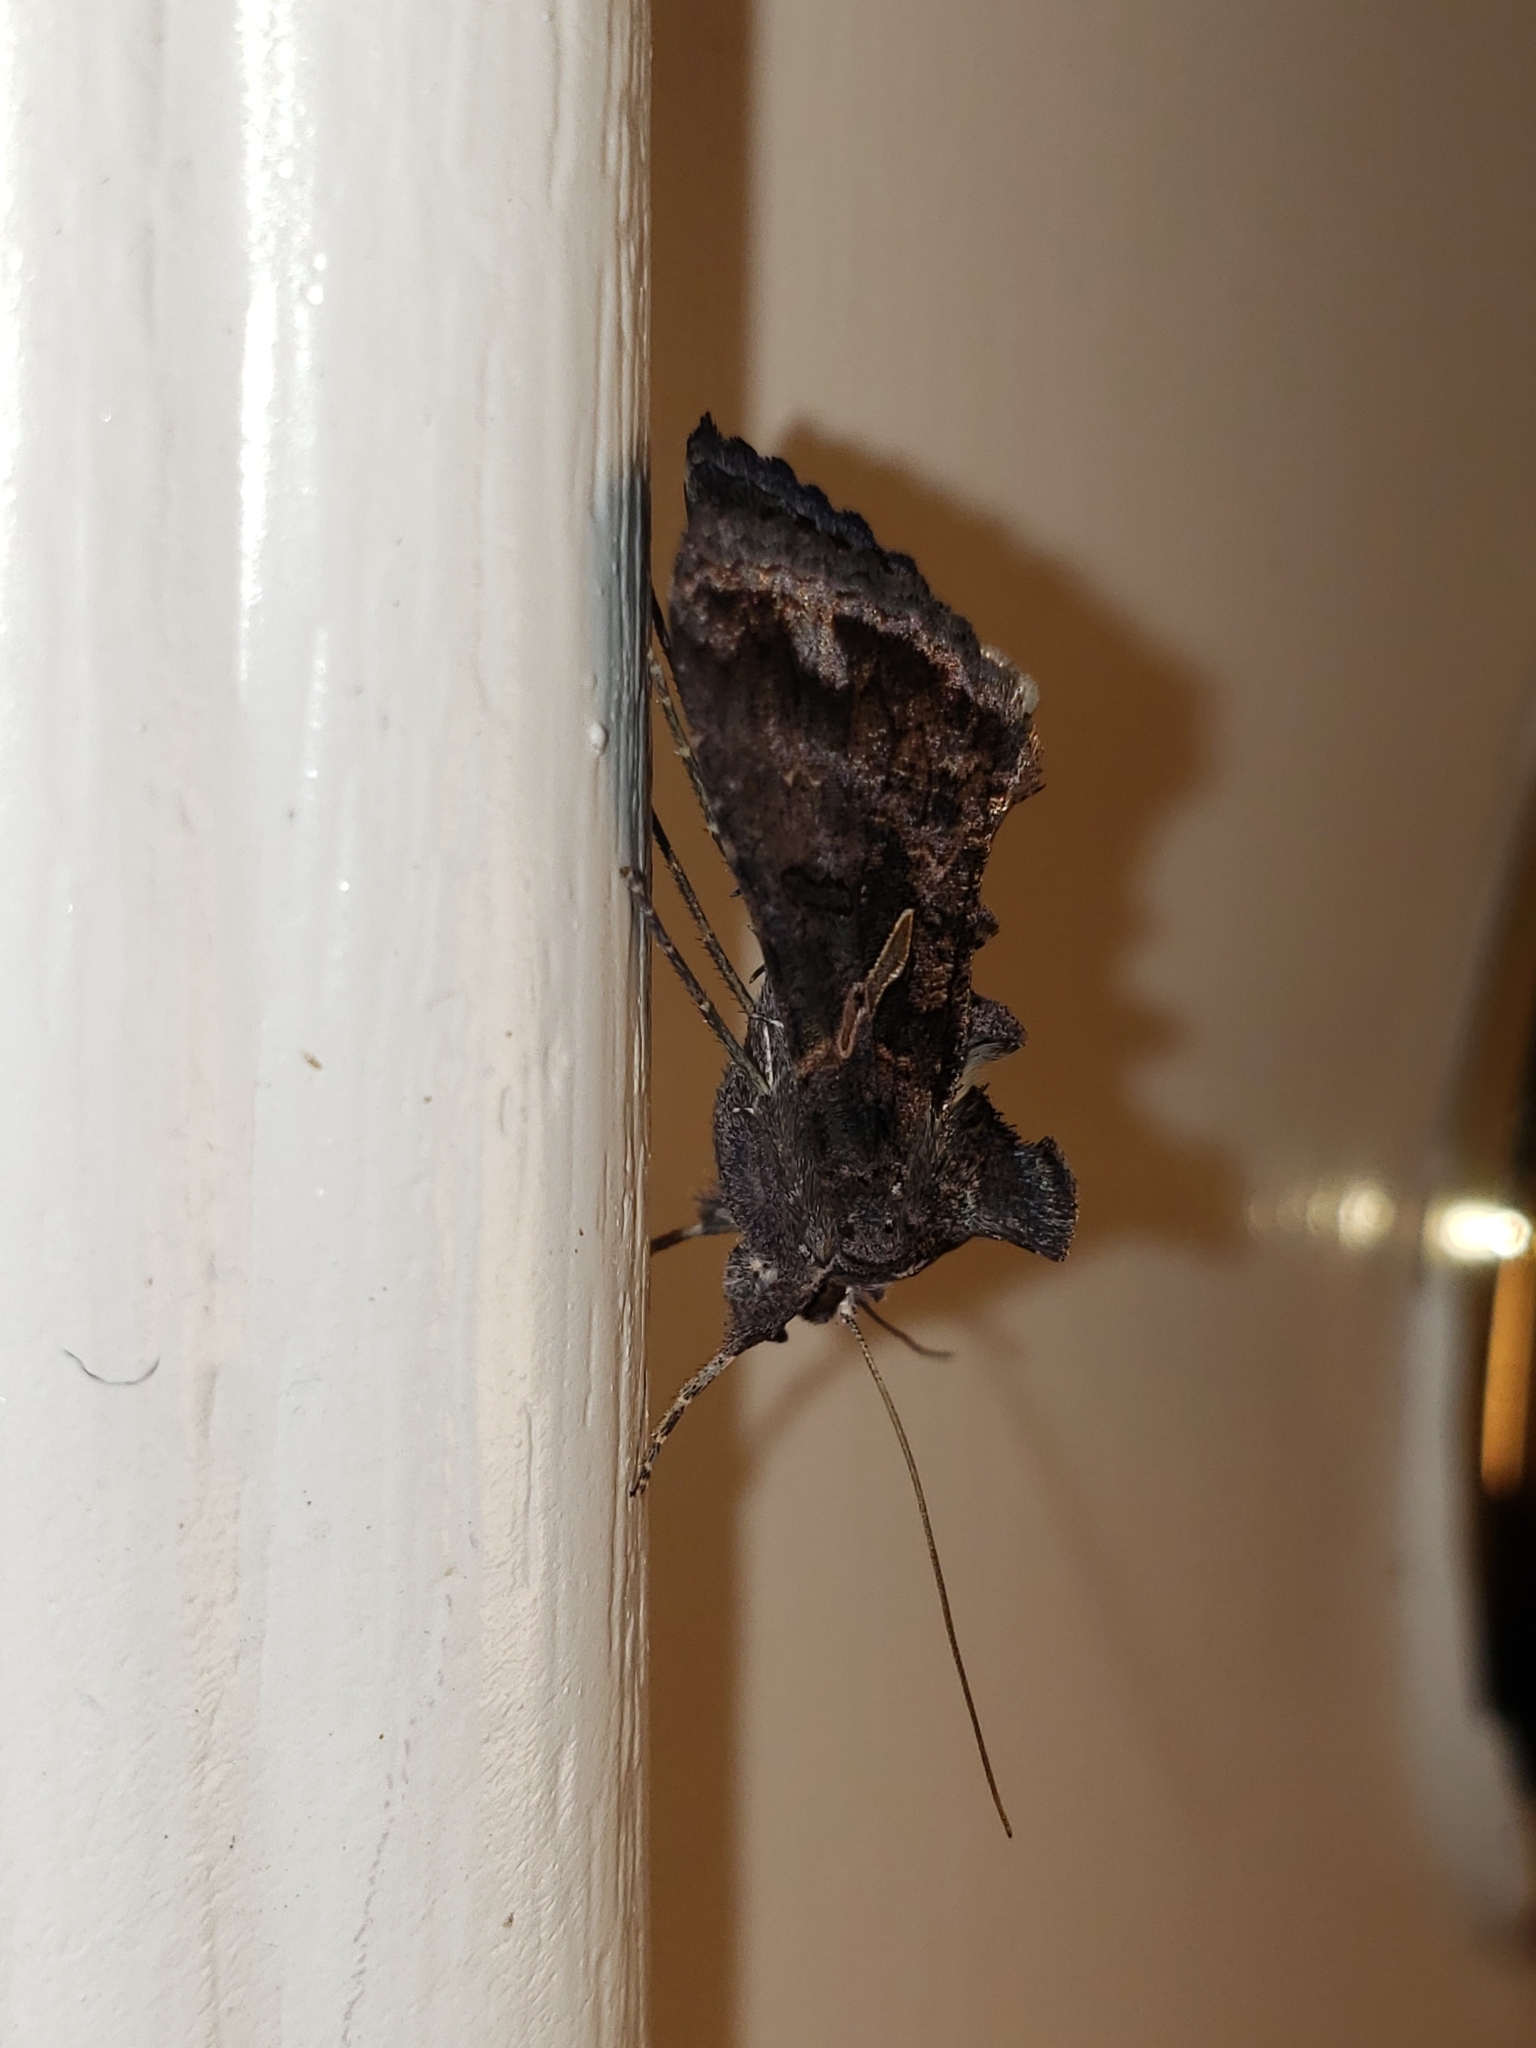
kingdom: Animalia
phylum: Arthropoda
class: Insecta
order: Lepidoptera
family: Noctuidae
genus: Ctenoplusia
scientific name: Ctenoplusia oxygramma
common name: Sharp-stigma looper moth
